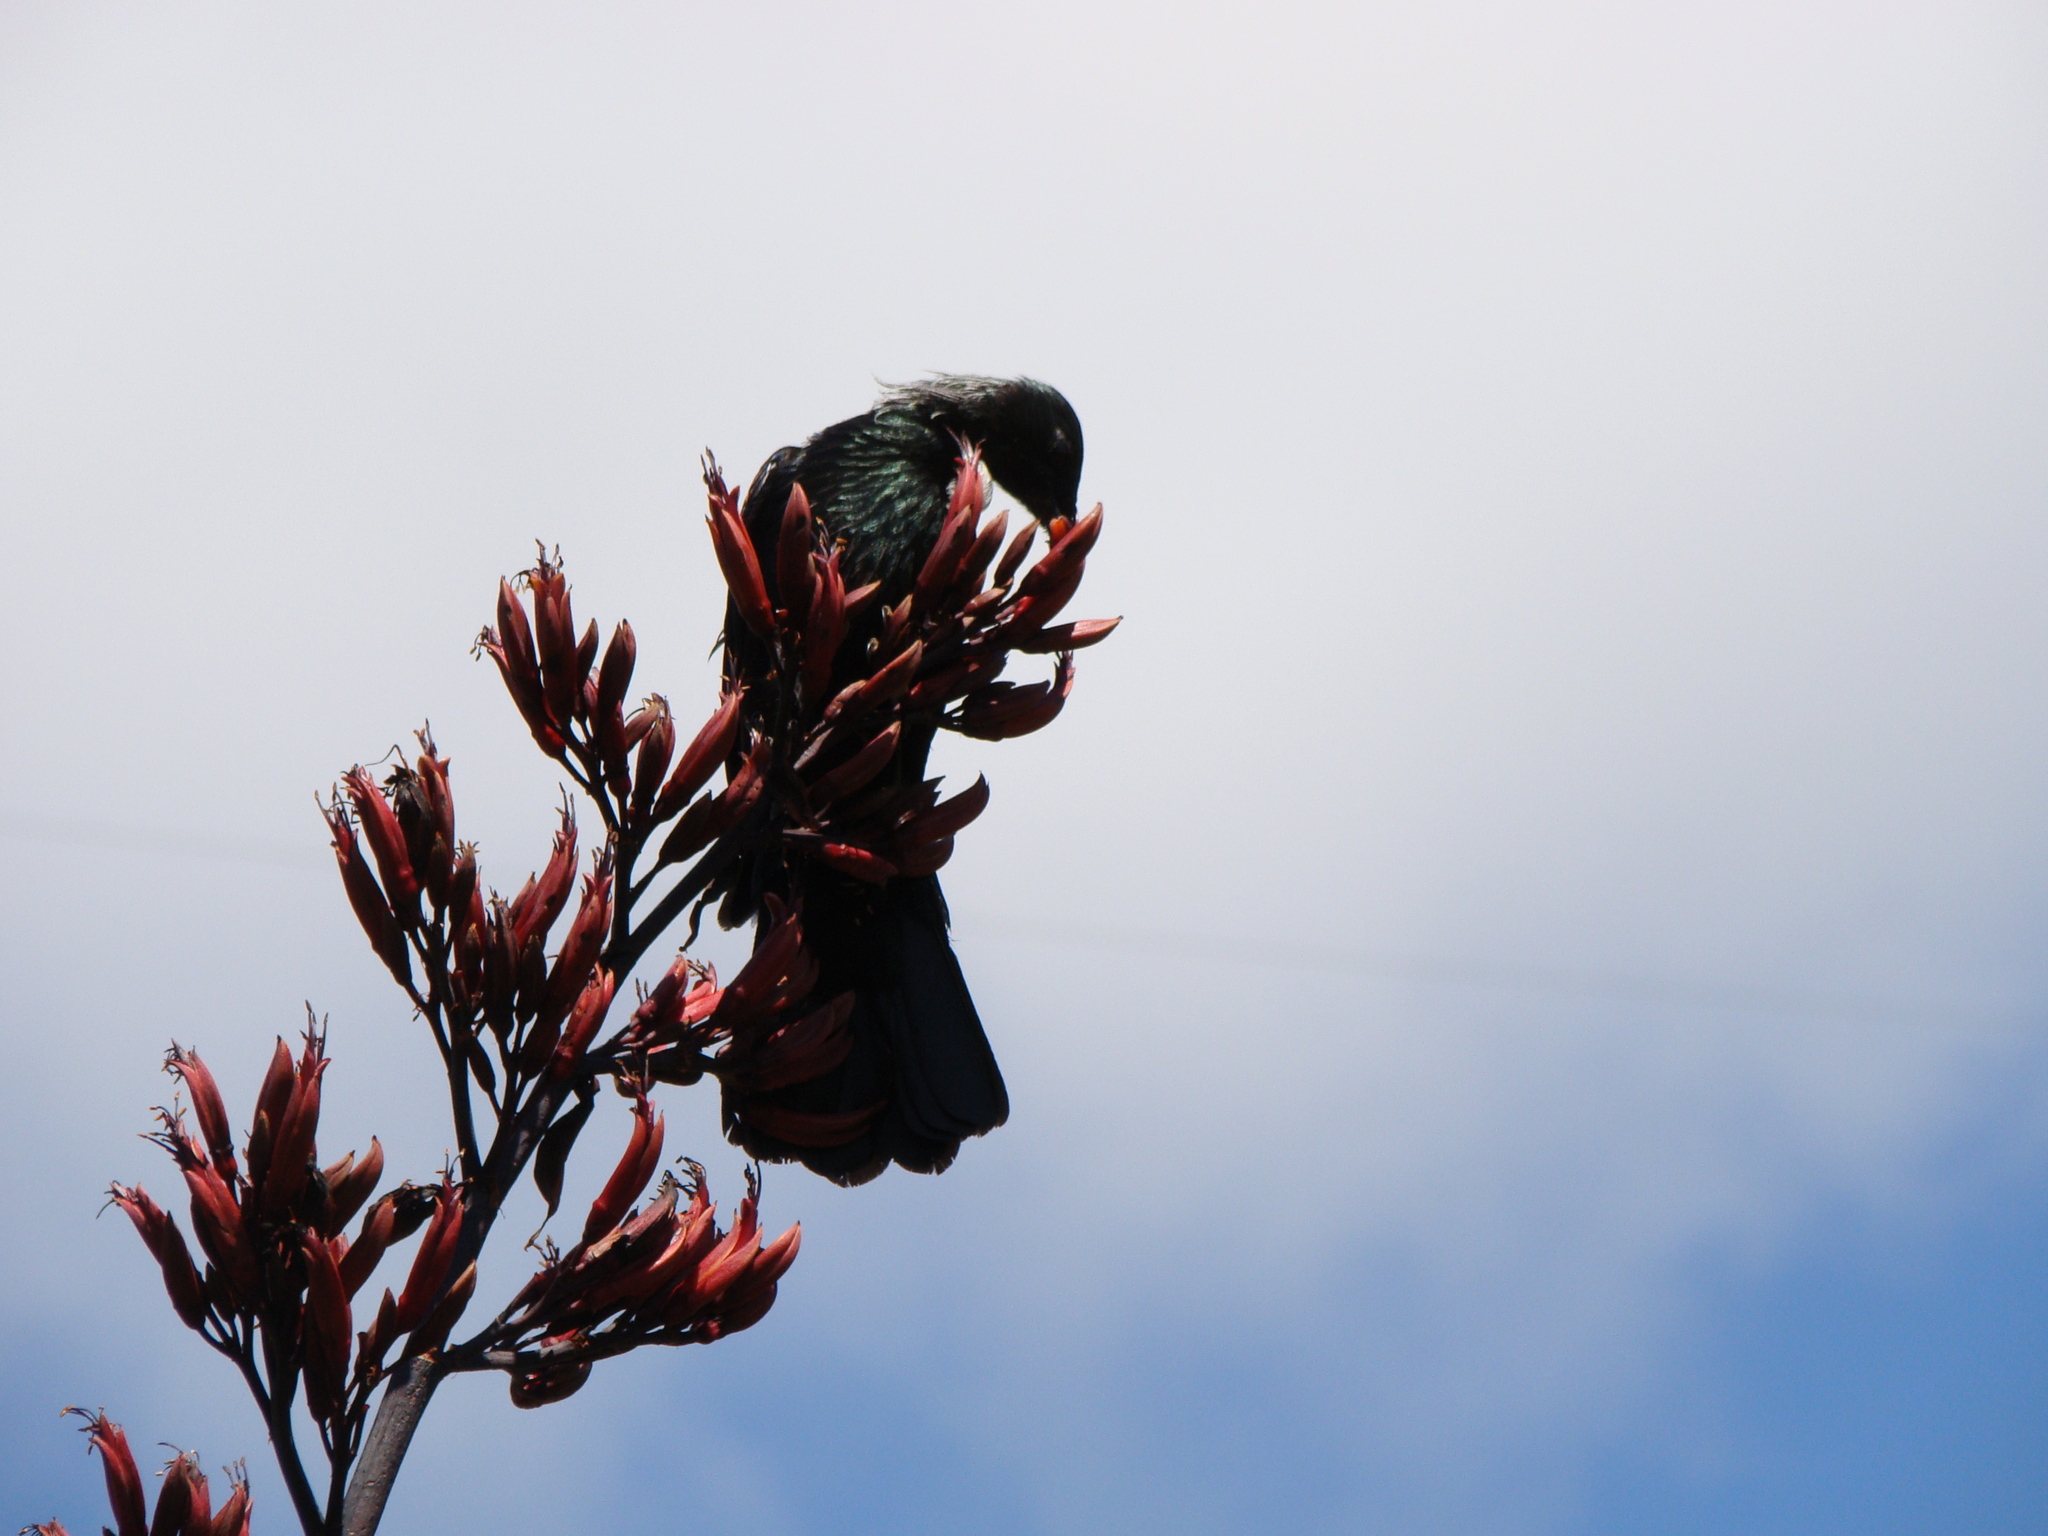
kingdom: Animalia
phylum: Chordata
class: Aves
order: Passeriformes
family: Meliphagidae
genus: Prosthemadera
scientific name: Prosthemadera novaeseelandiae
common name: Tui
